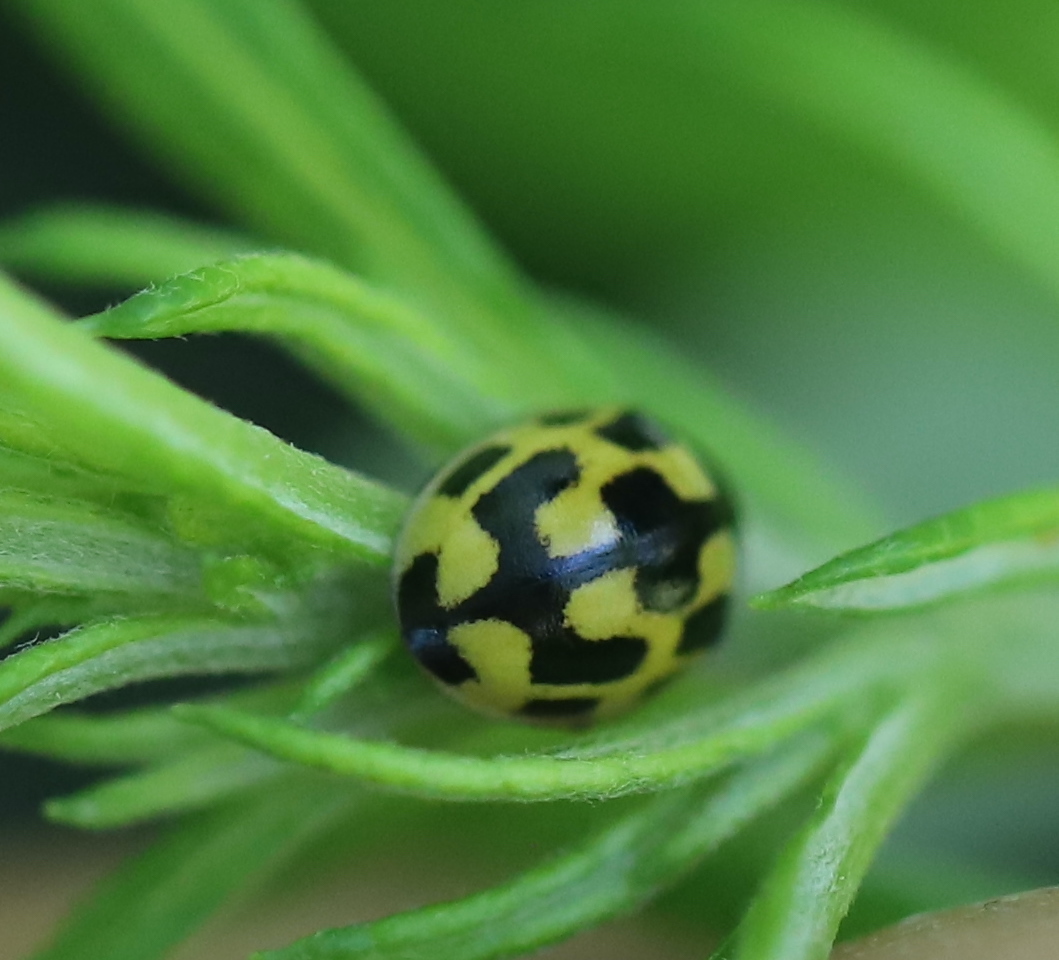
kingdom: Animalia
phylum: Arthropoda
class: Insecta
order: Coleoptera
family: Coccinellidae
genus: Propylaea
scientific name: Propylaea quatuordecimpunctata
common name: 14-spotted ladybird beetle
